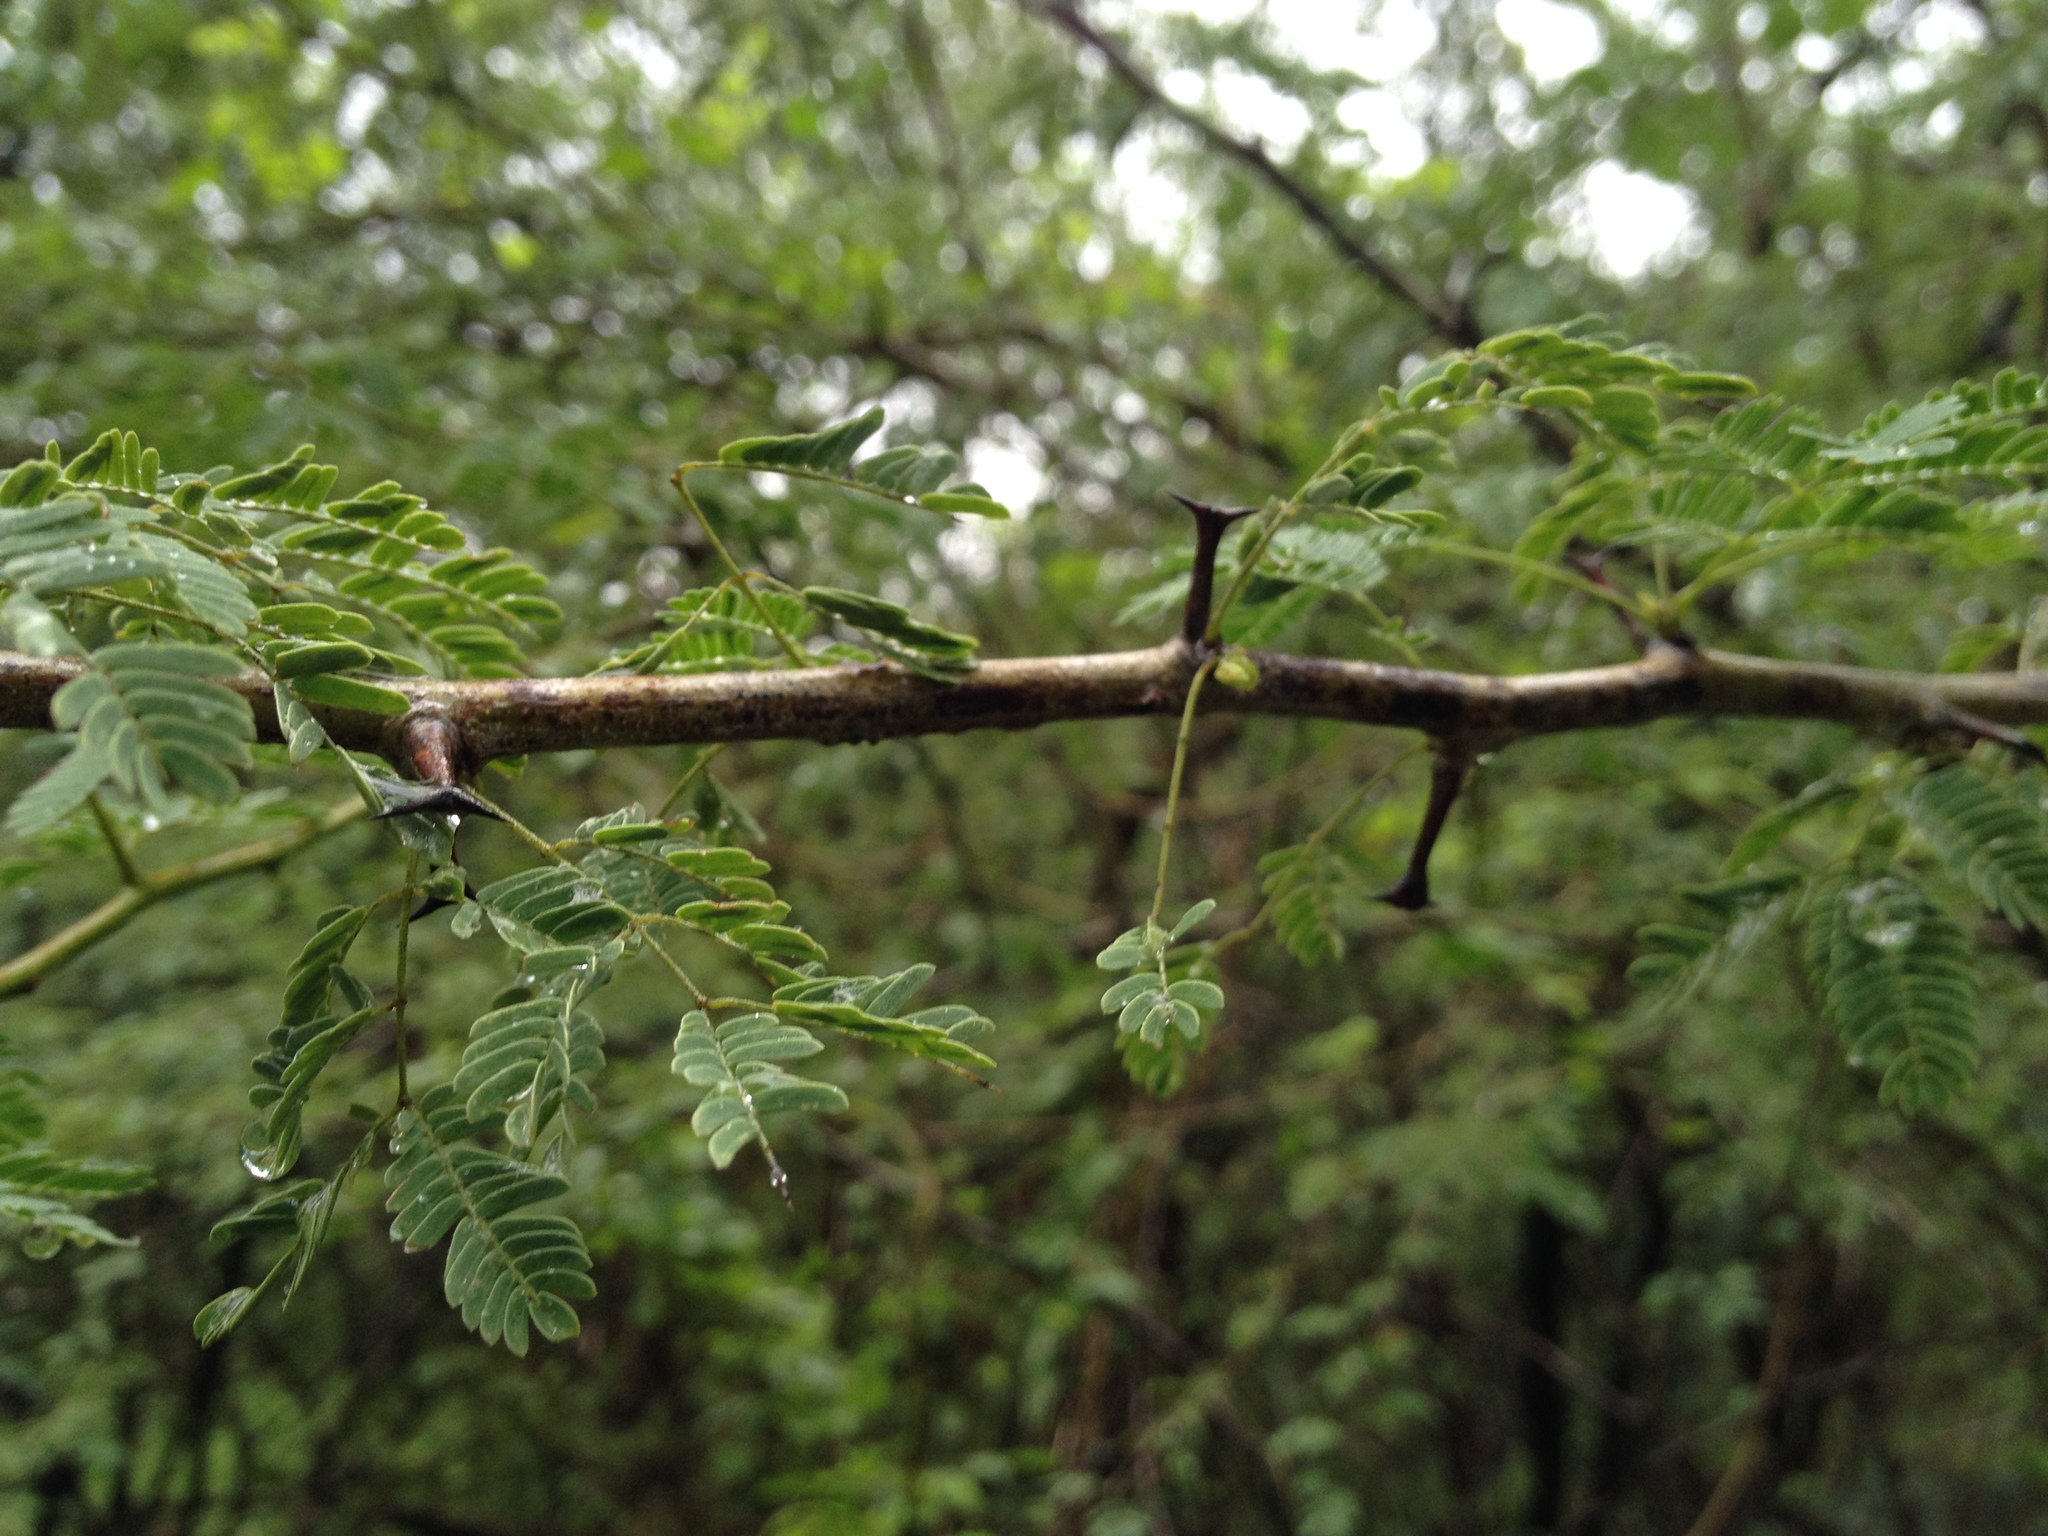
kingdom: Plantae
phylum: Tracheophyta
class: Magnoliopsida
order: Fabales
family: Fabaceae
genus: Senegalia
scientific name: Senegalia gilliesii
